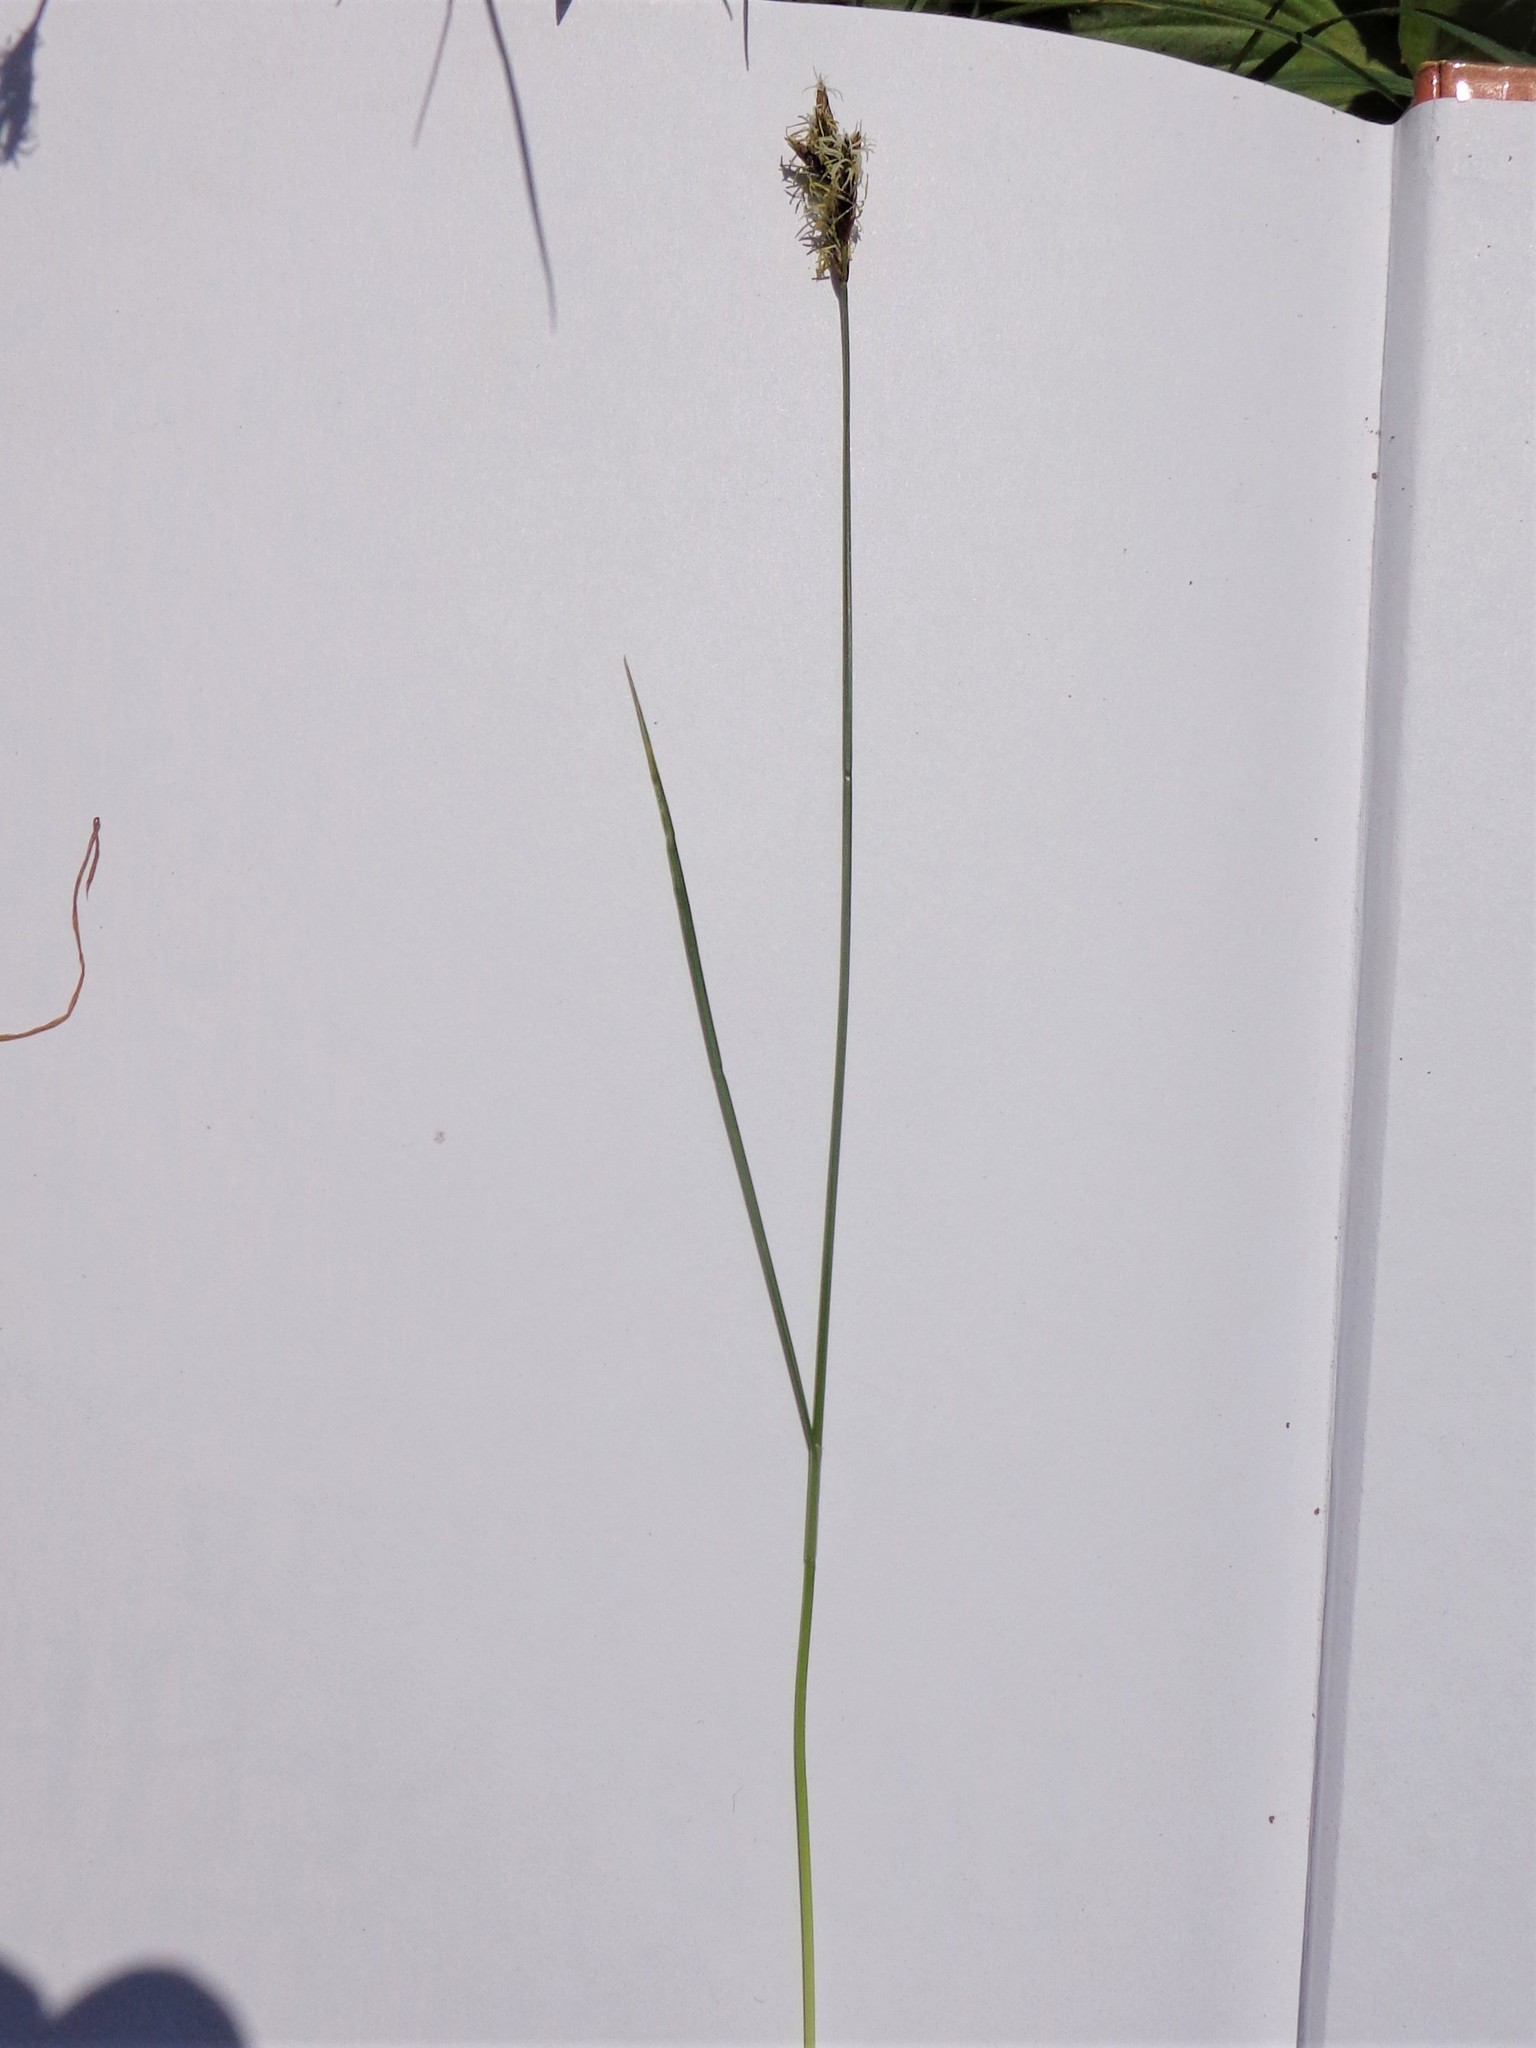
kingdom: Plantae
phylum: Tracheophyta
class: Liliopsida
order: Poales
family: Cyperaceae
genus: Carex
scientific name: Carex praecox
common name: Early sedge
